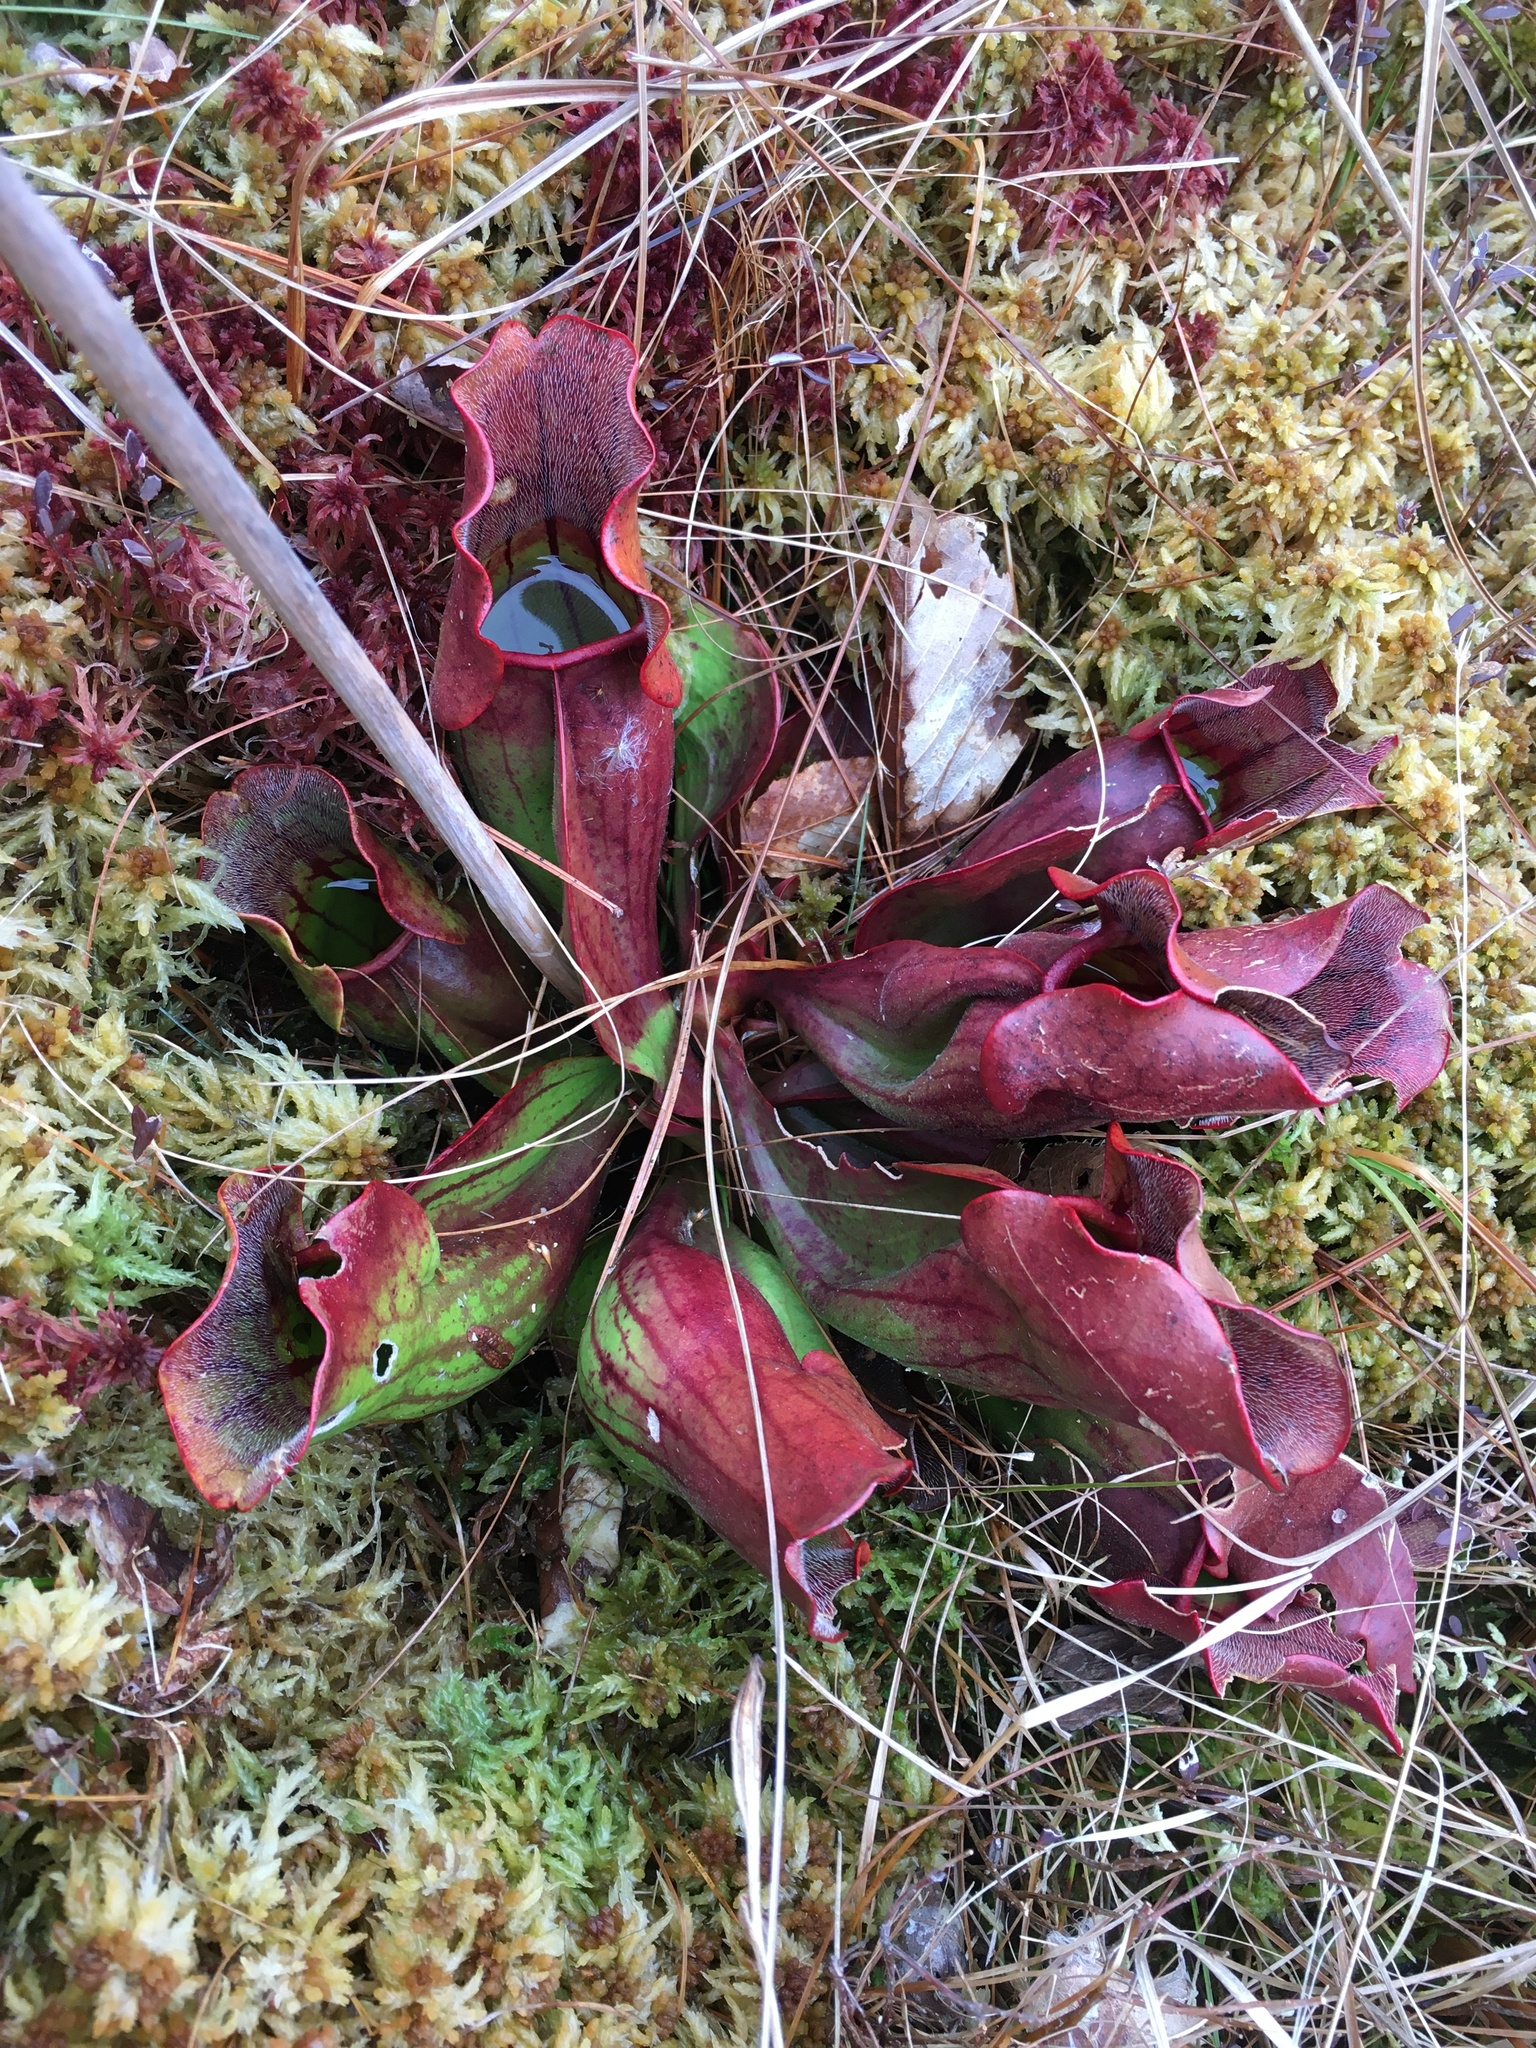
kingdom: Plantae
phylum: Tracheophyta
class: Magnoliopsida
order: Ericales
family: Sarraceniaceae
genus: Sarracenia
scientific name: Sarracenia purpurea
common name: Pitcherplant
